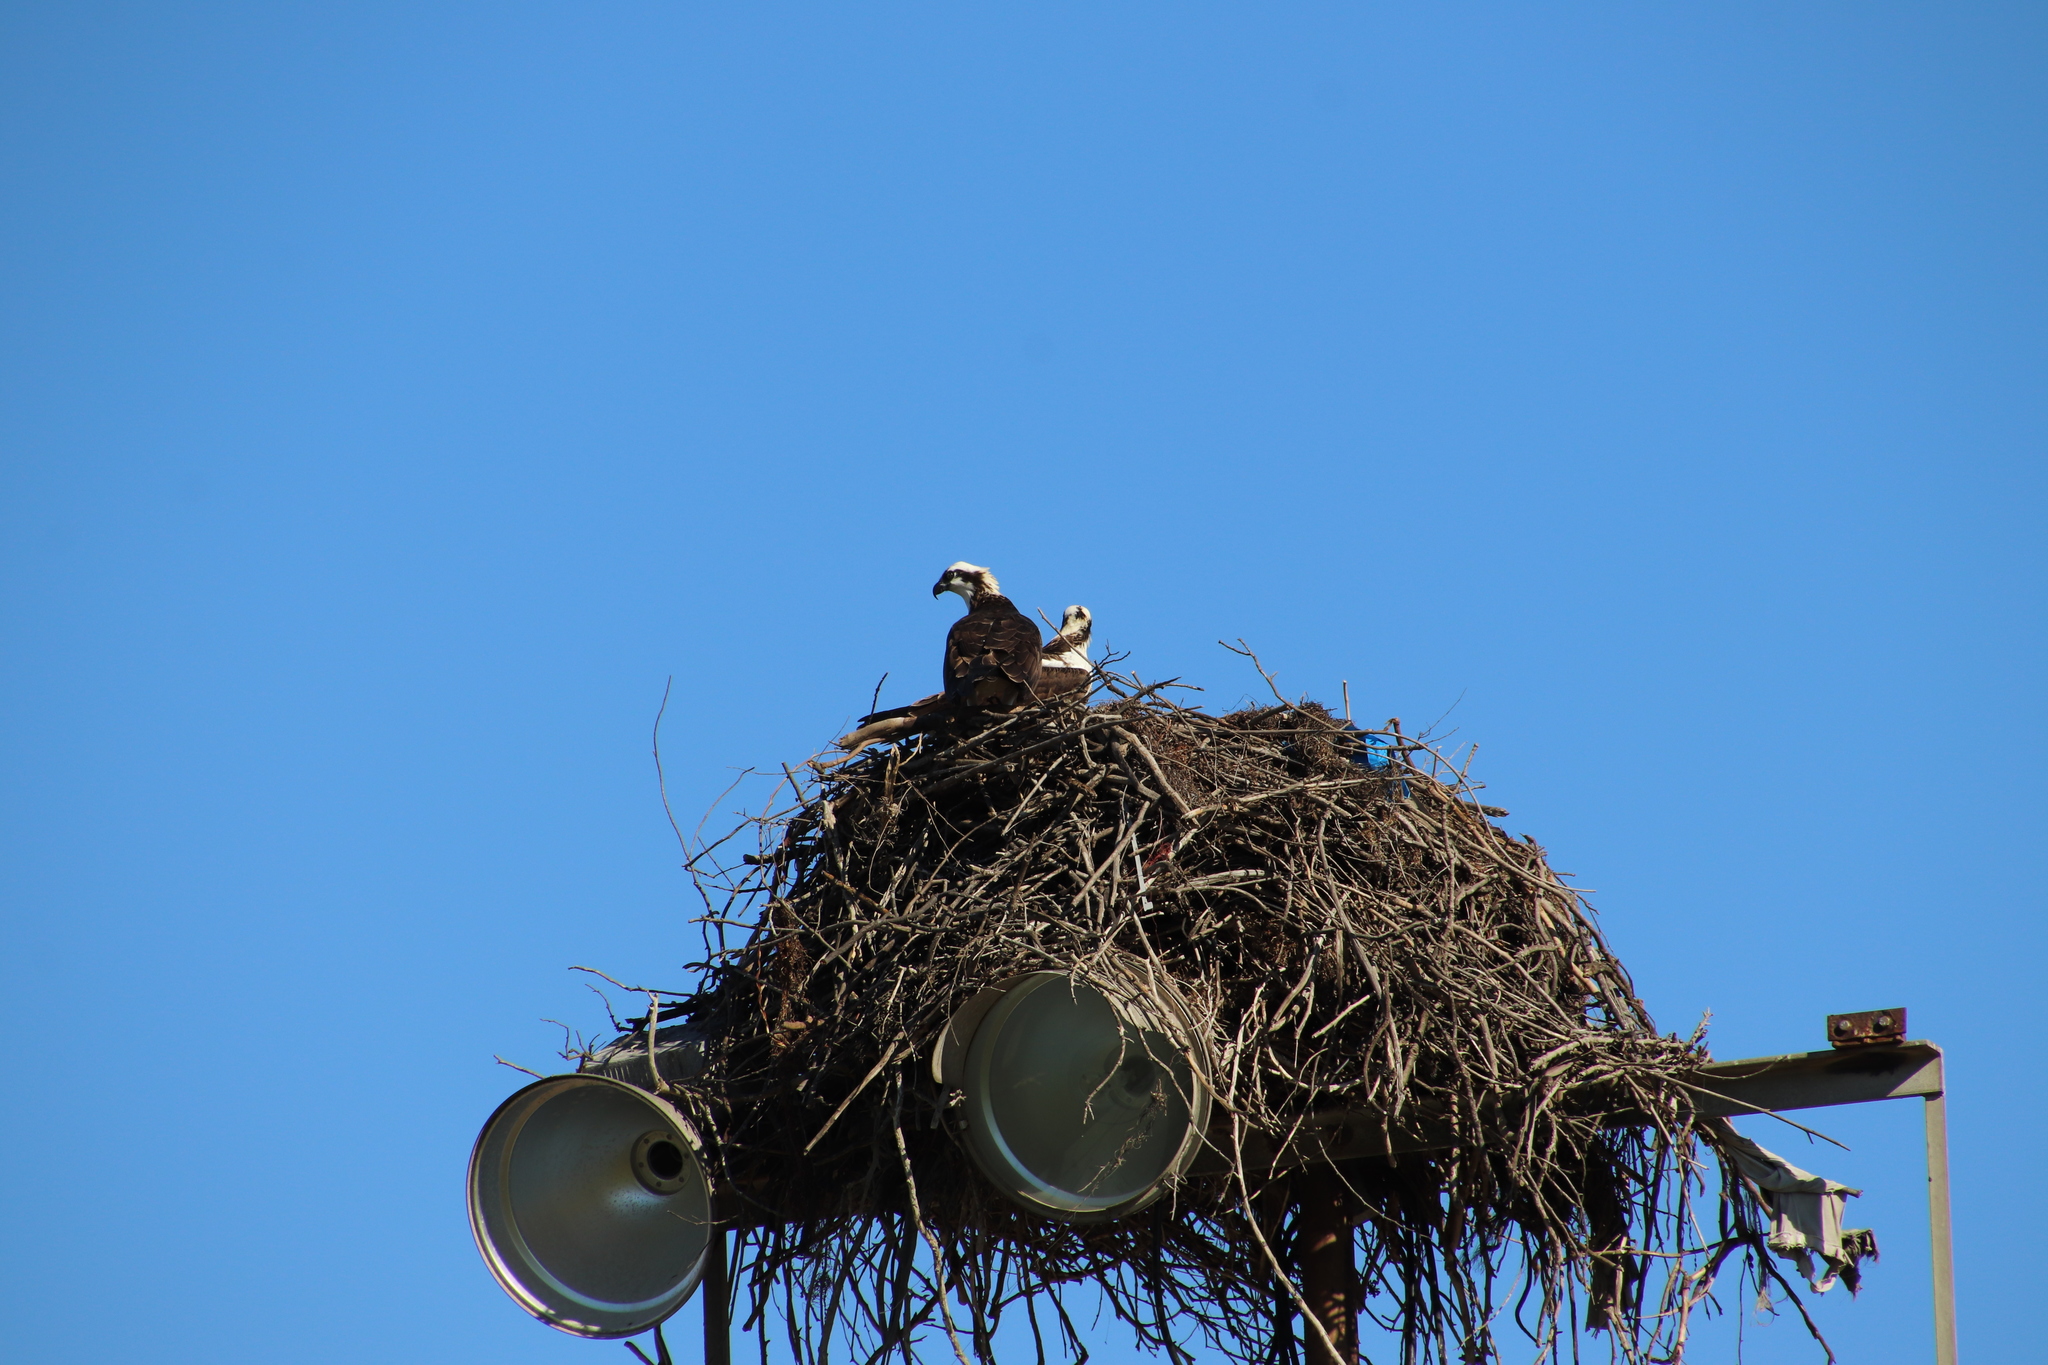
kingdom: Animalia
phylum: Chordata
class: Aves
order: Accipitriformes
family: Pandionidae
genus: Pandion
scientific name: Pandion haliaetus
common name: Osprey
